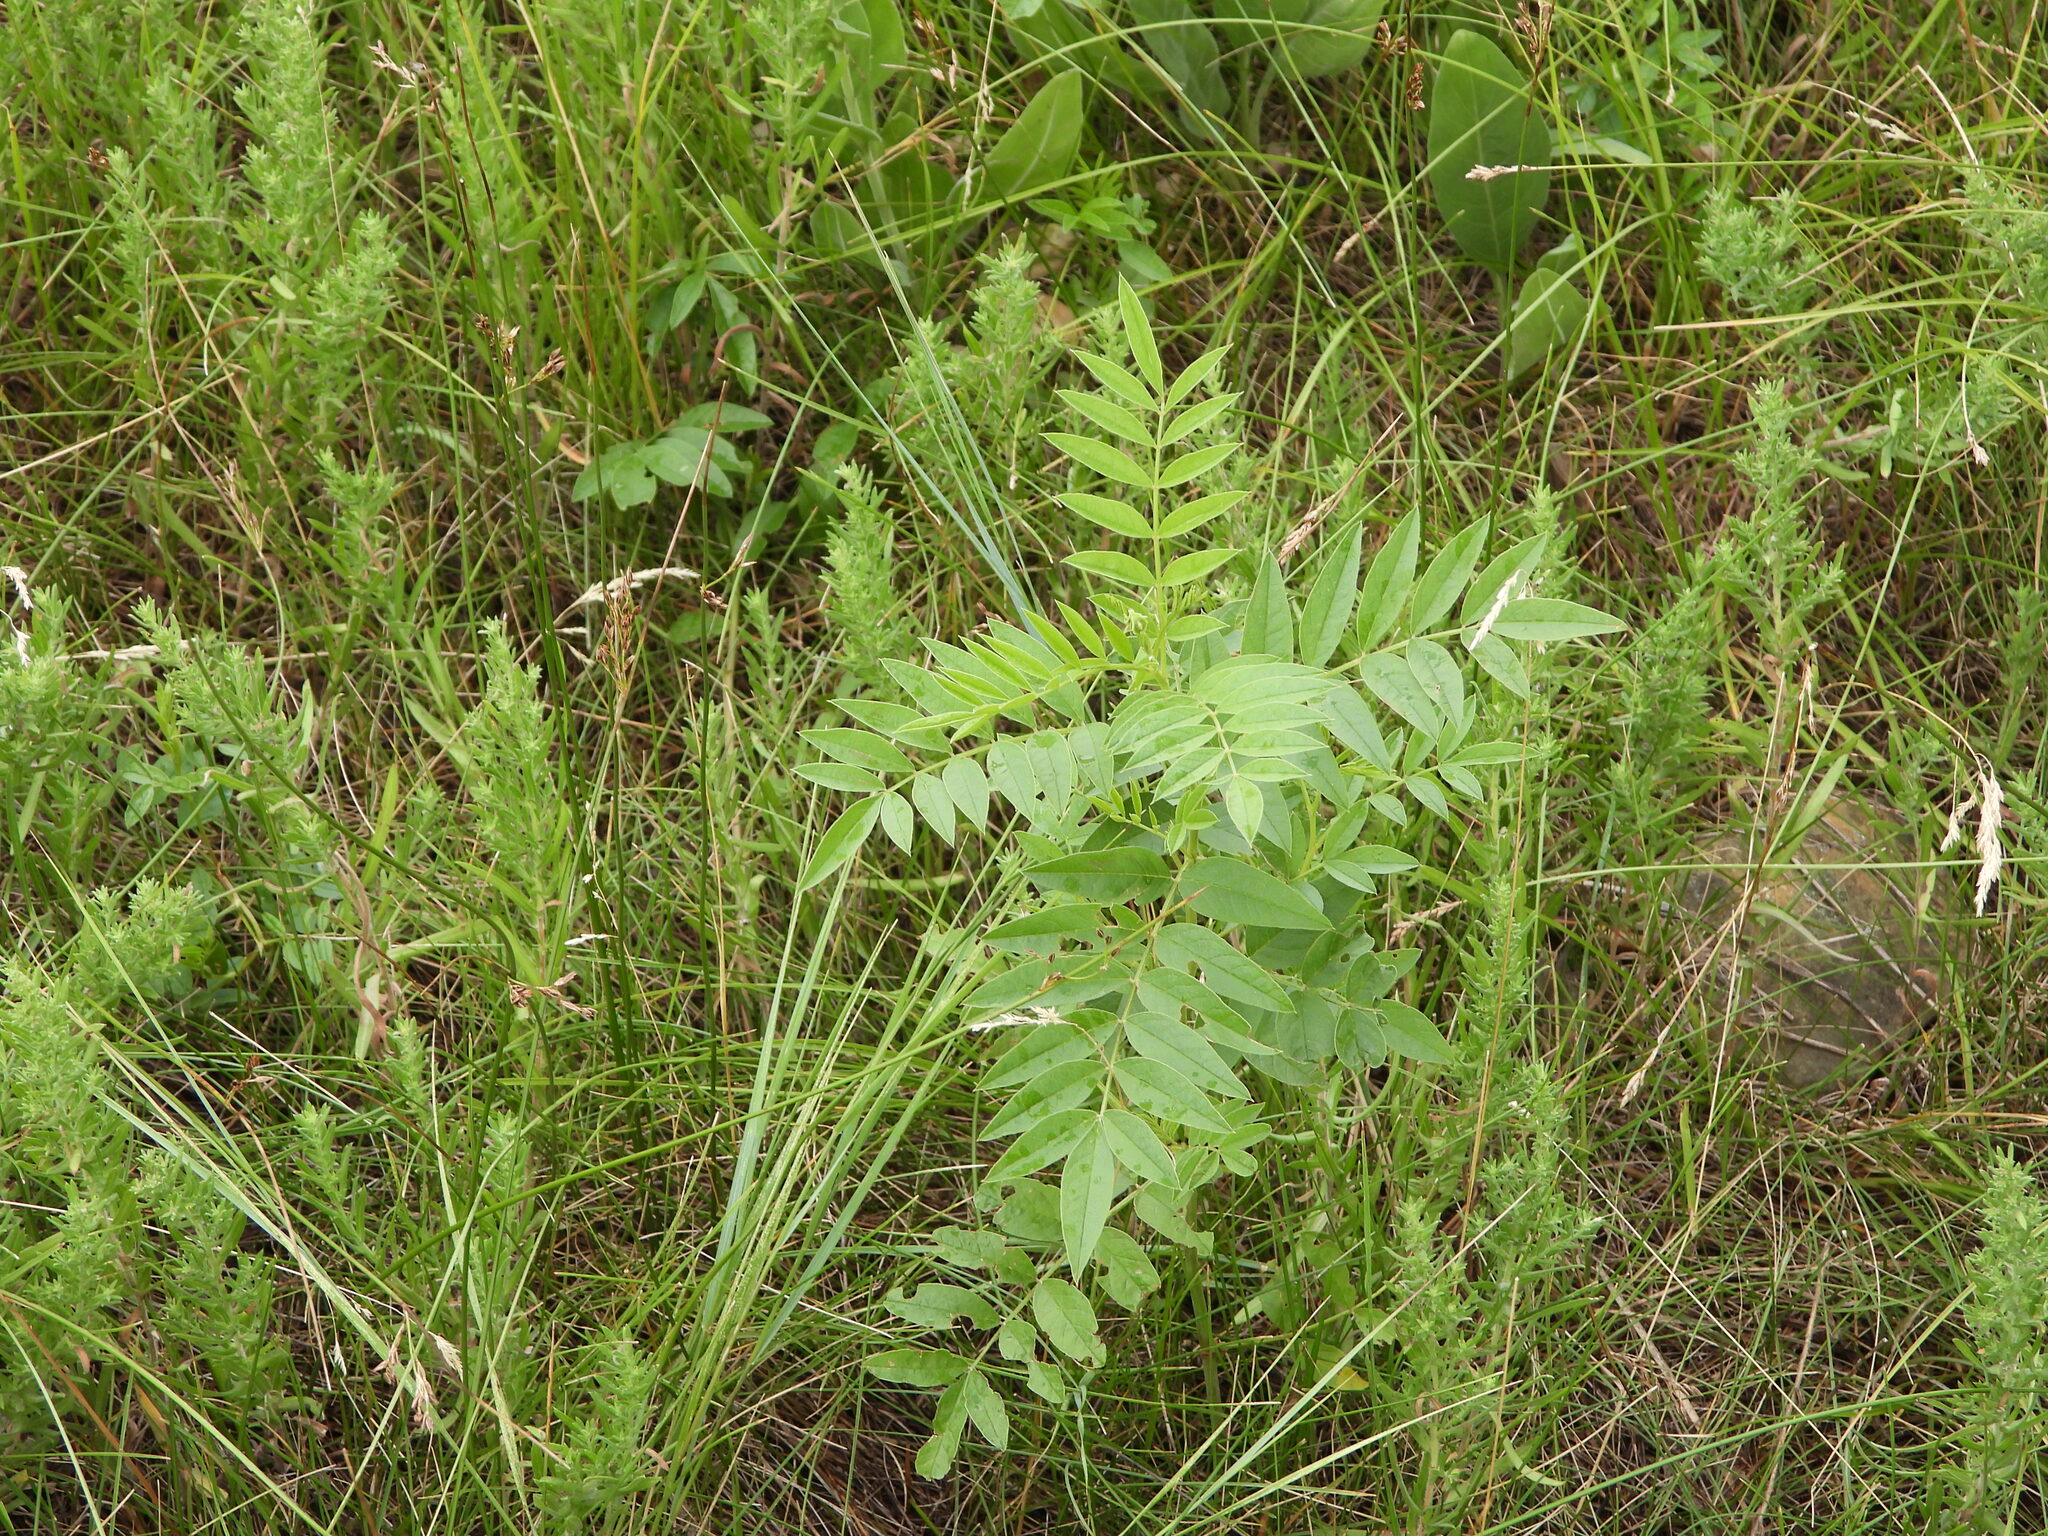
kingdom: Plantae
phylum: Tracheophyta
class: Magnoliopsida
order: Fabales
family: Fabaceae
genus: Glycyrrhiza
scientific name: Glycyrrhiza lepidota
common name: American liquorice
